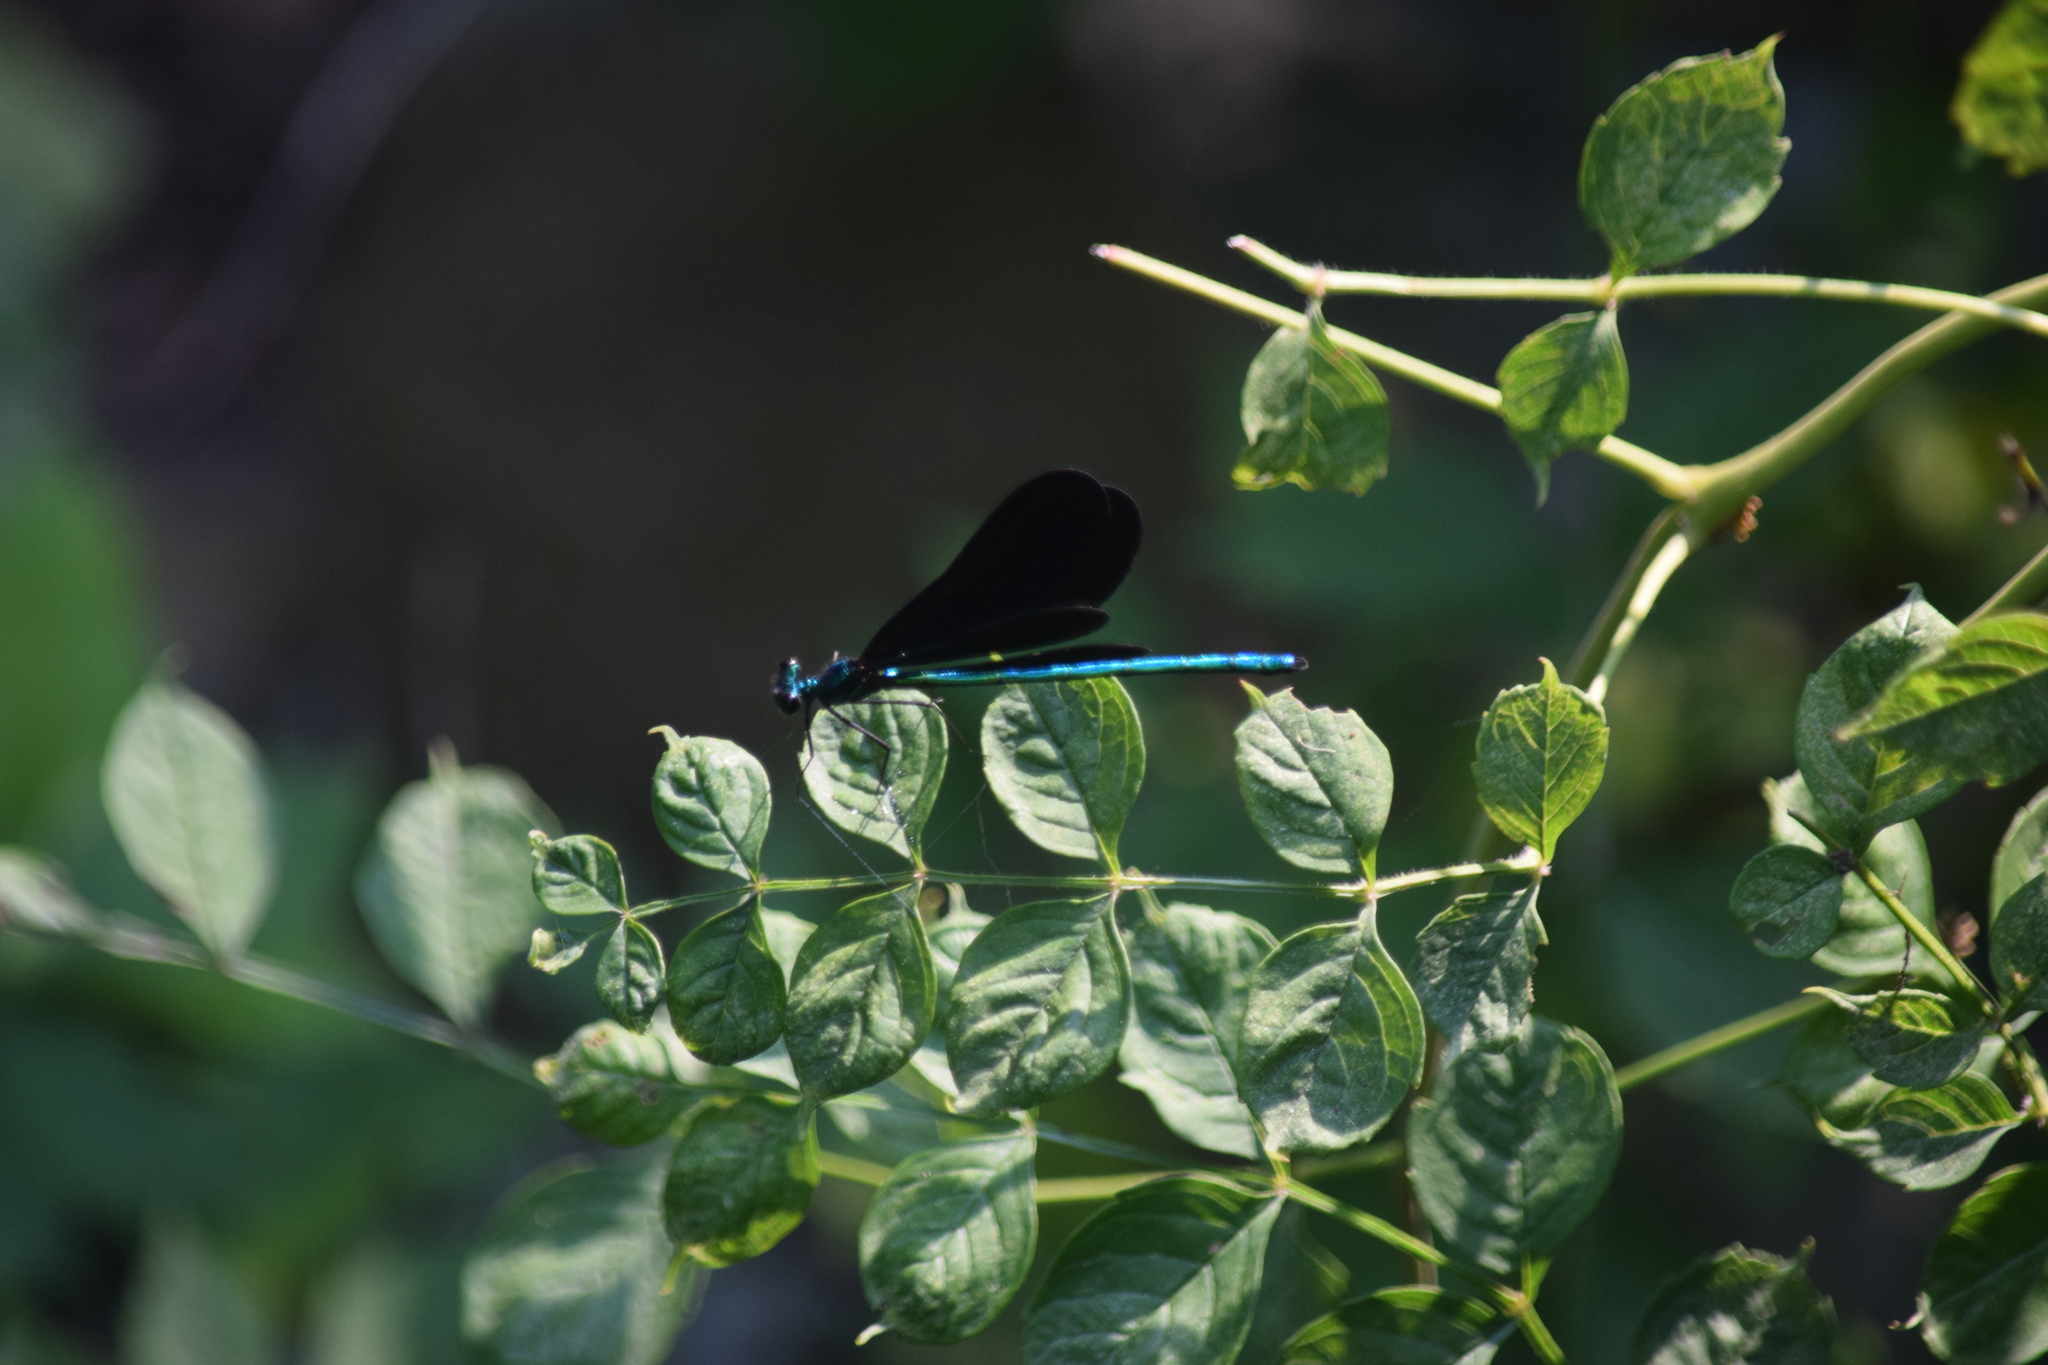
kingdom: Animalia
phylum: Arthropoda
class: Insecta
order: Odonata
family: Calopterygidae
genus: Calopteryx
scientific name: Calopteryx maculata
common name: Ebony jewelwing
